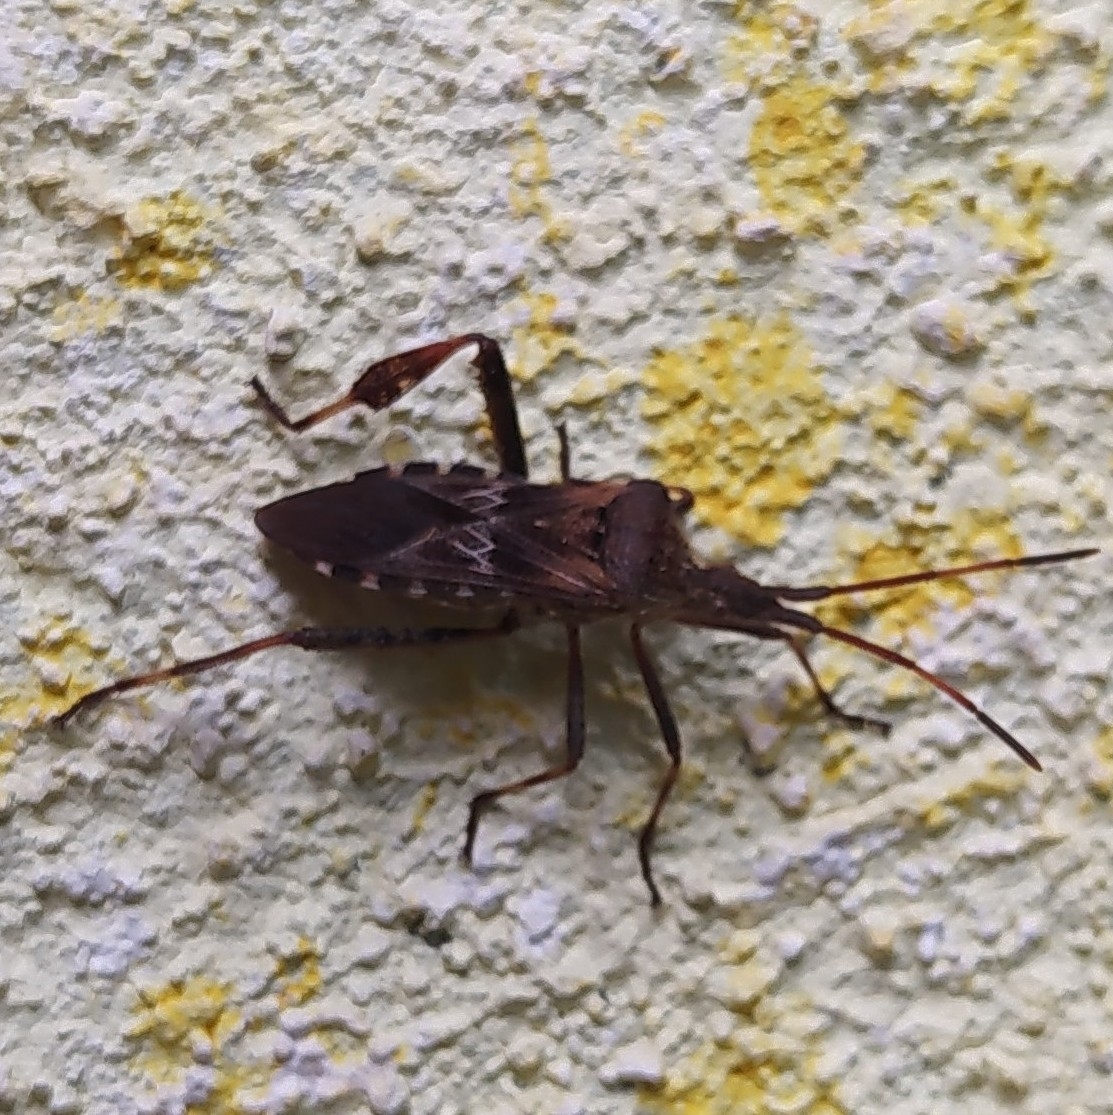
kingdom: Animalia
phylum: Arthropoda
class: Insecta
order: Hemiptera
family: Coreidae
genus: Leptoglossus
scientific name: Leptoglossus occidentalis
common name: Western conifer-seed bug
